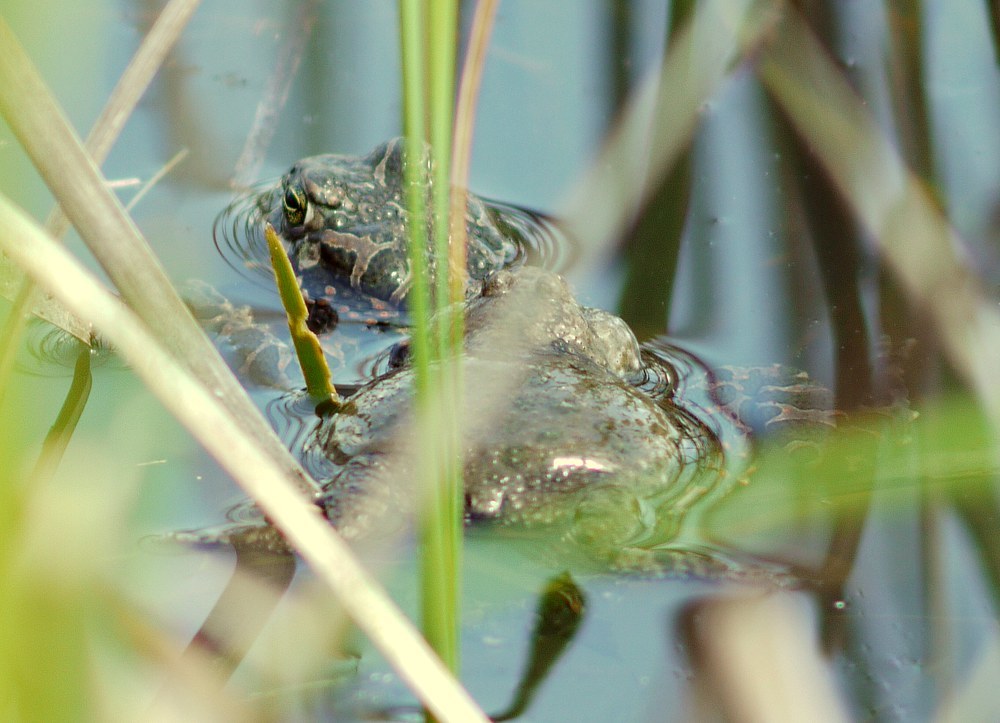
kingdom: Animalia
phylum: Chordata
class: Amphibia
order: Anura
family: Bombinatoridae
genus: Bombina
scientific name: Bombina bombina
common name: Fire-bellied toad
